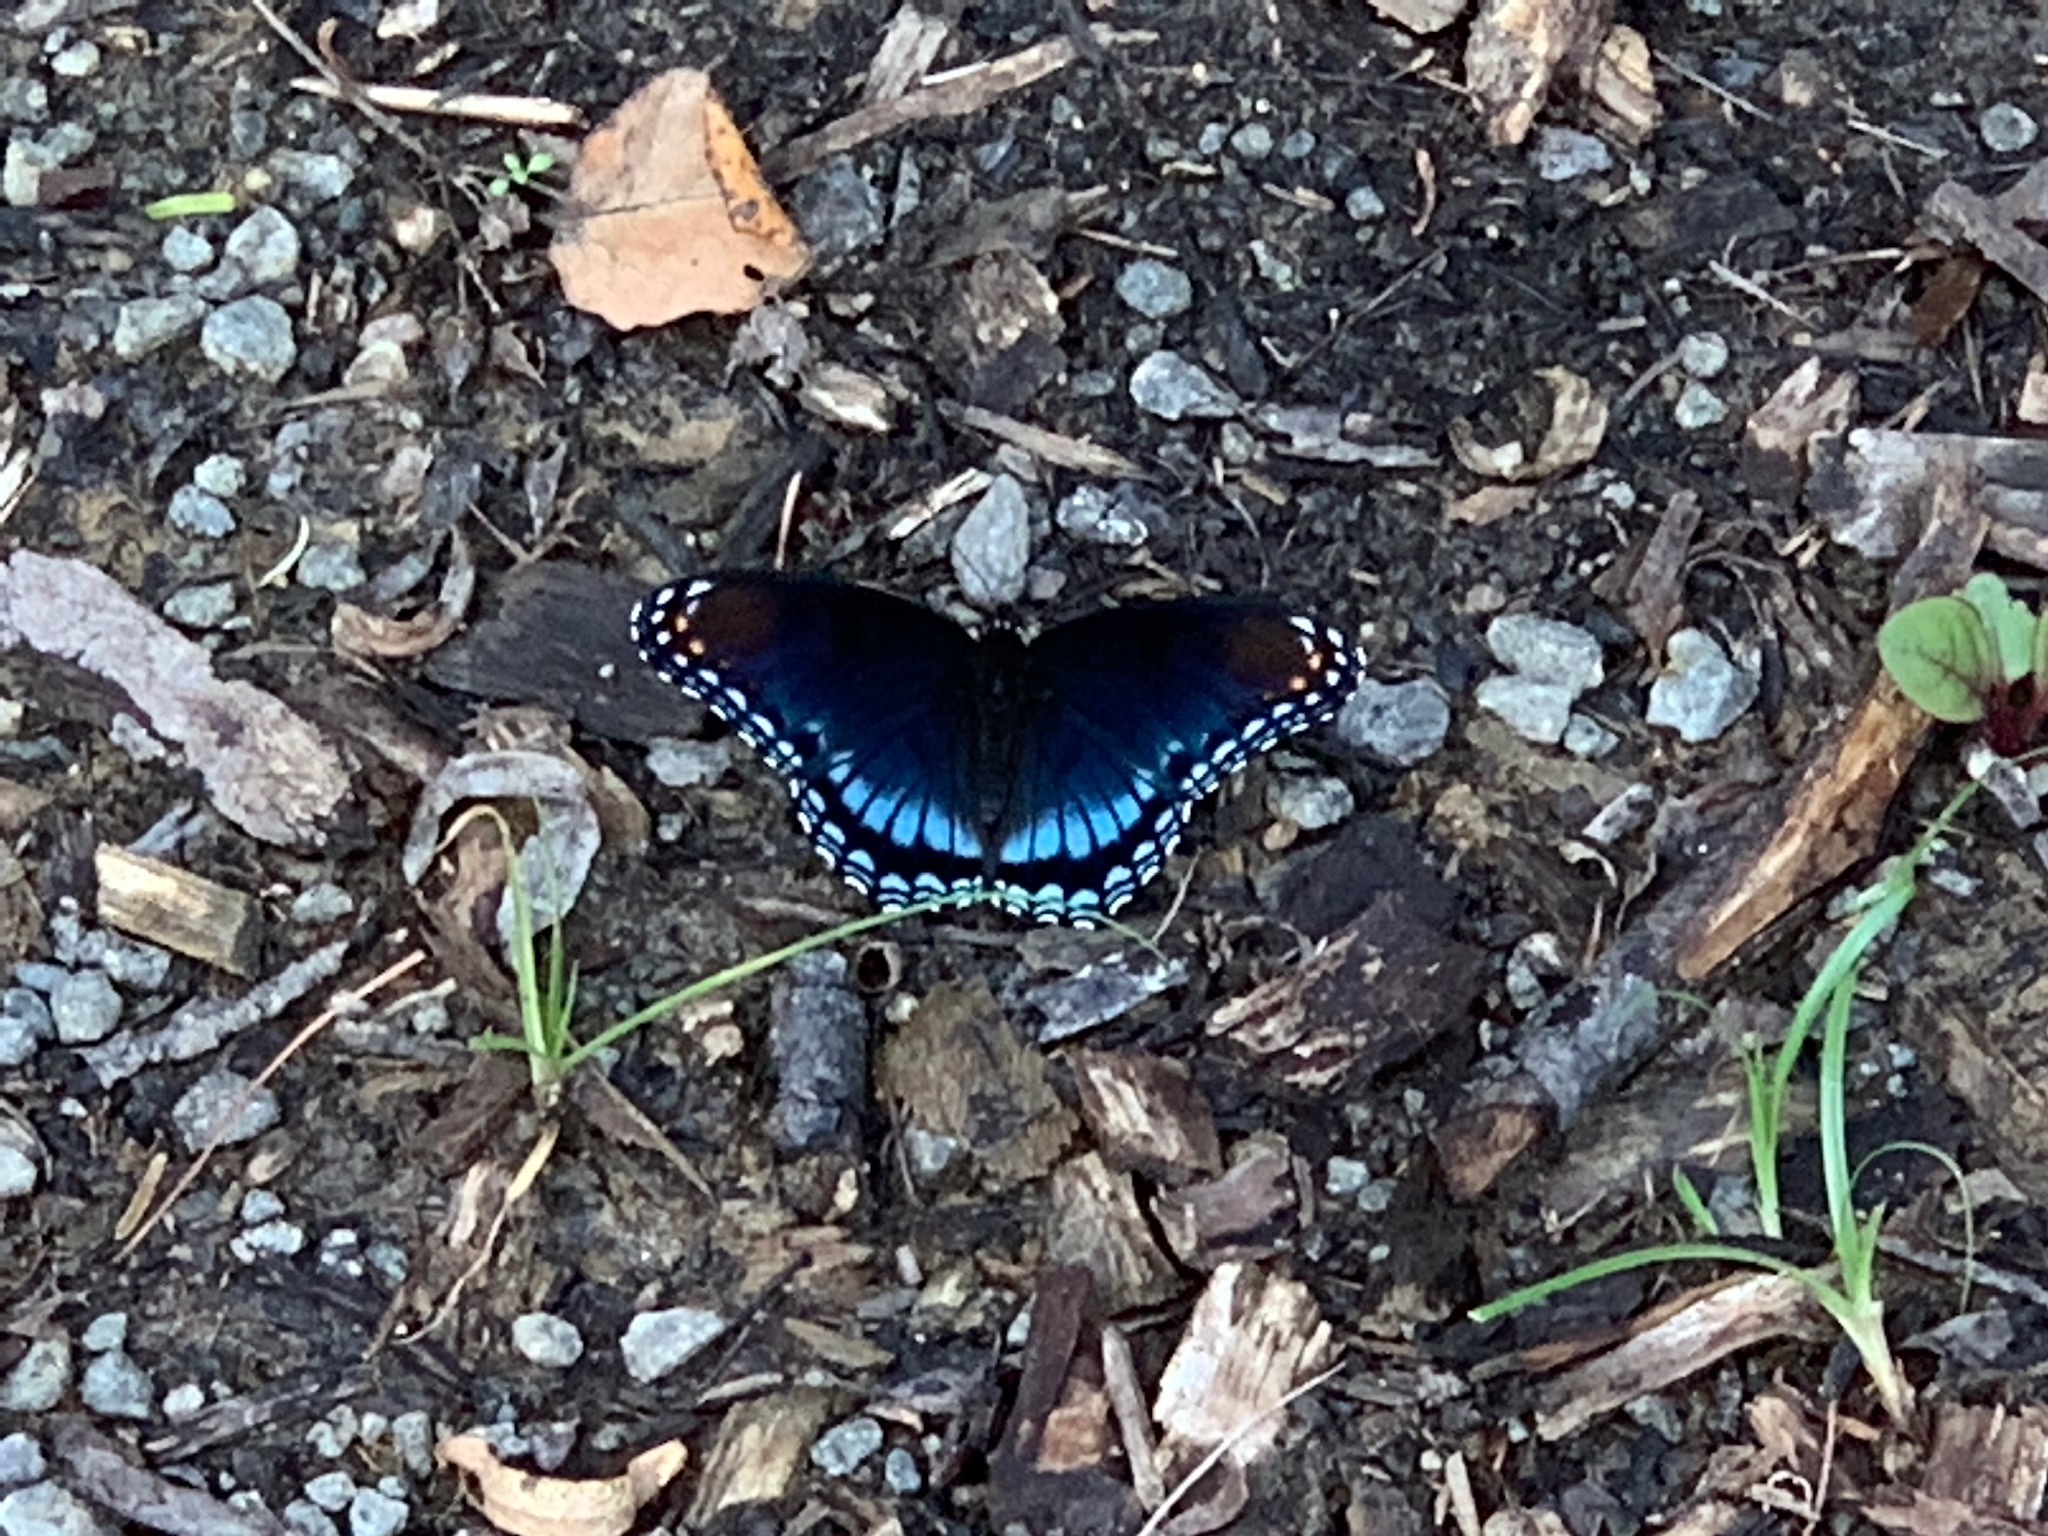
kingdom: Animalia
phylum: Arthropoda
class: Insecta
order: Lepidoptera
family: Nymphalidae
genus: Limenitis
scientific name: Limenitis arthemis
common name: Red-spotted admiral
